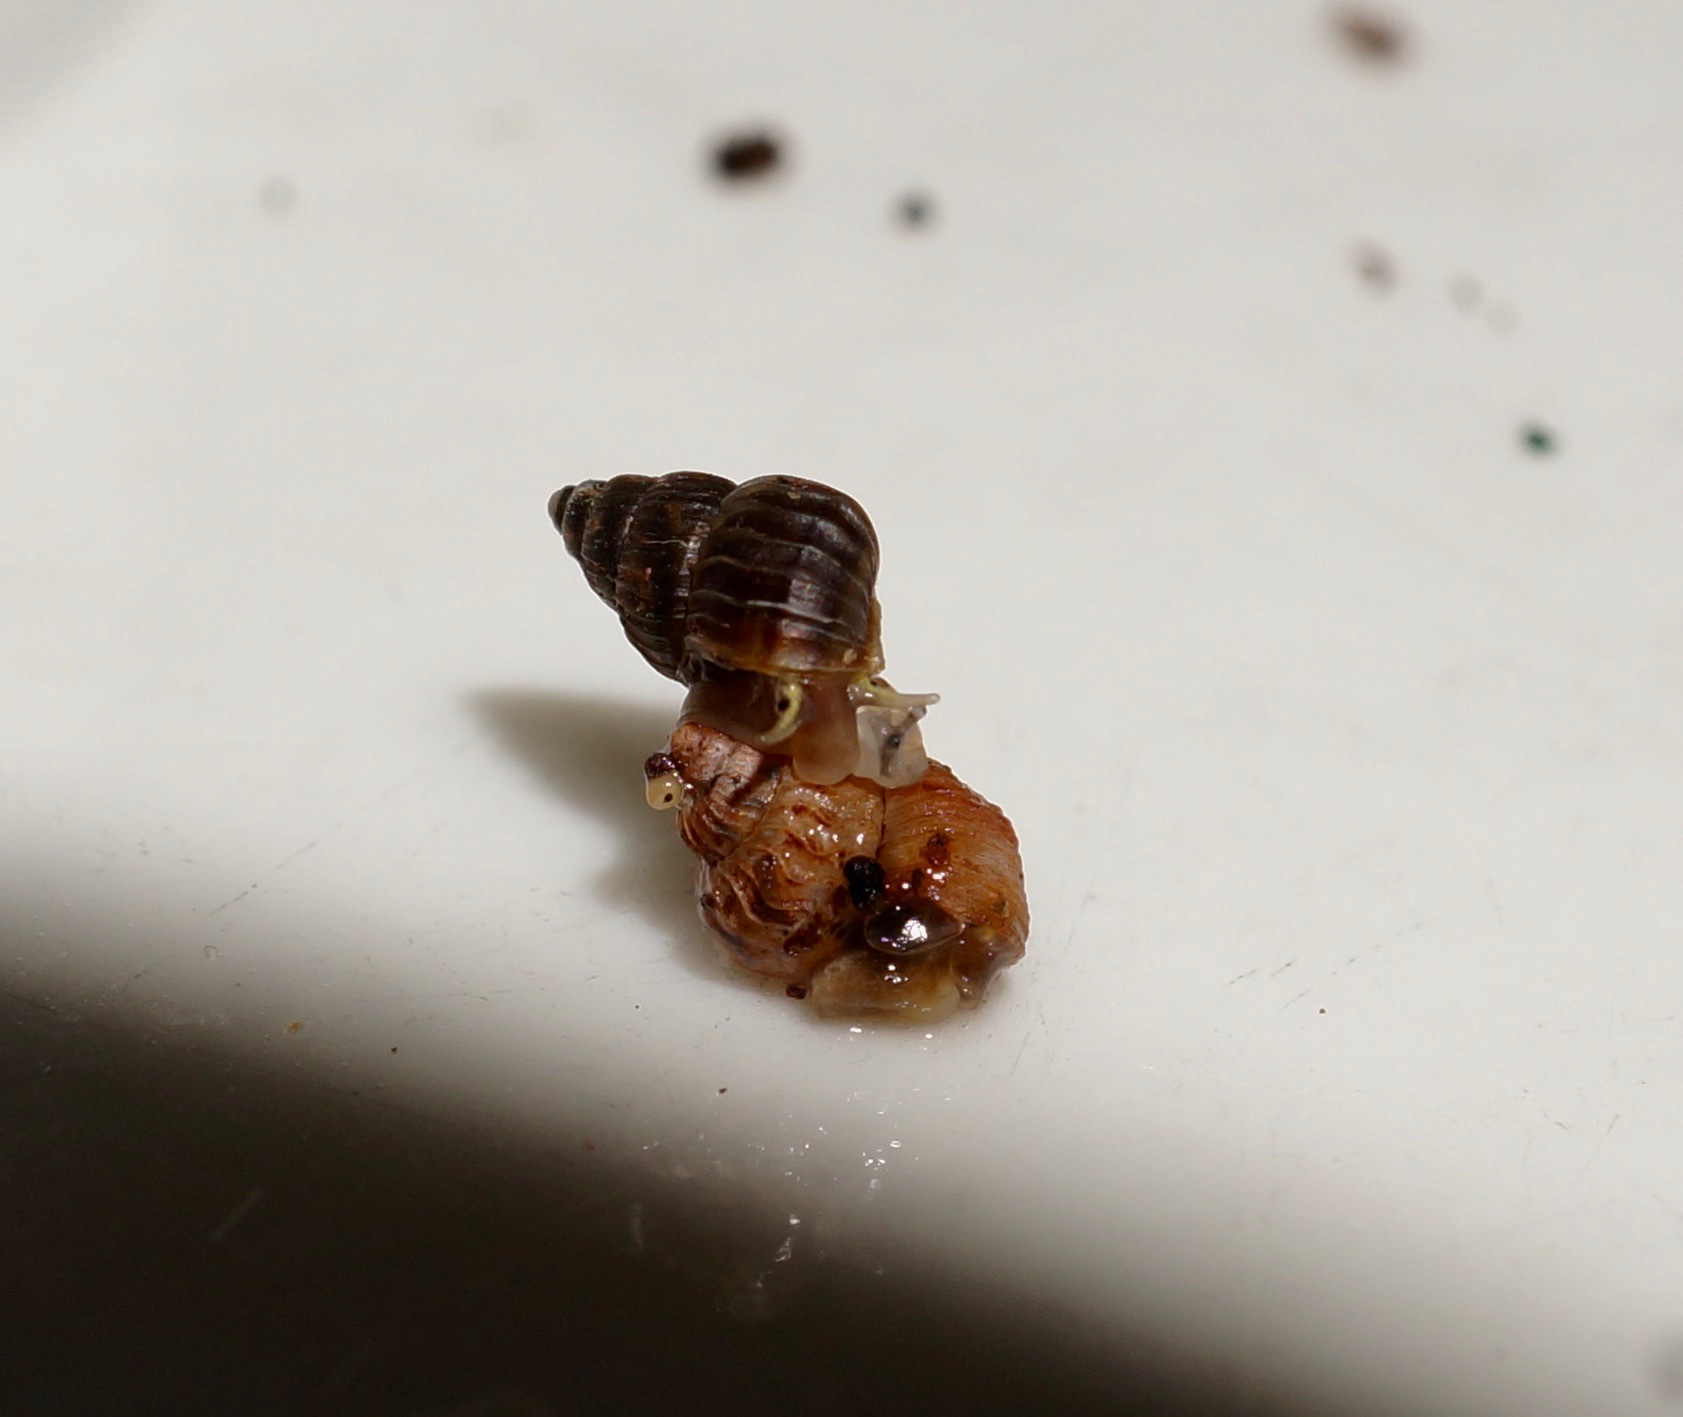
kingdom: Animalia
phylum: Mollusca
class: Gastropoda
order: Littorinimorpha
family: Assimineidae
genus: Duritropis
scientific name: Duritropis albocarinata
